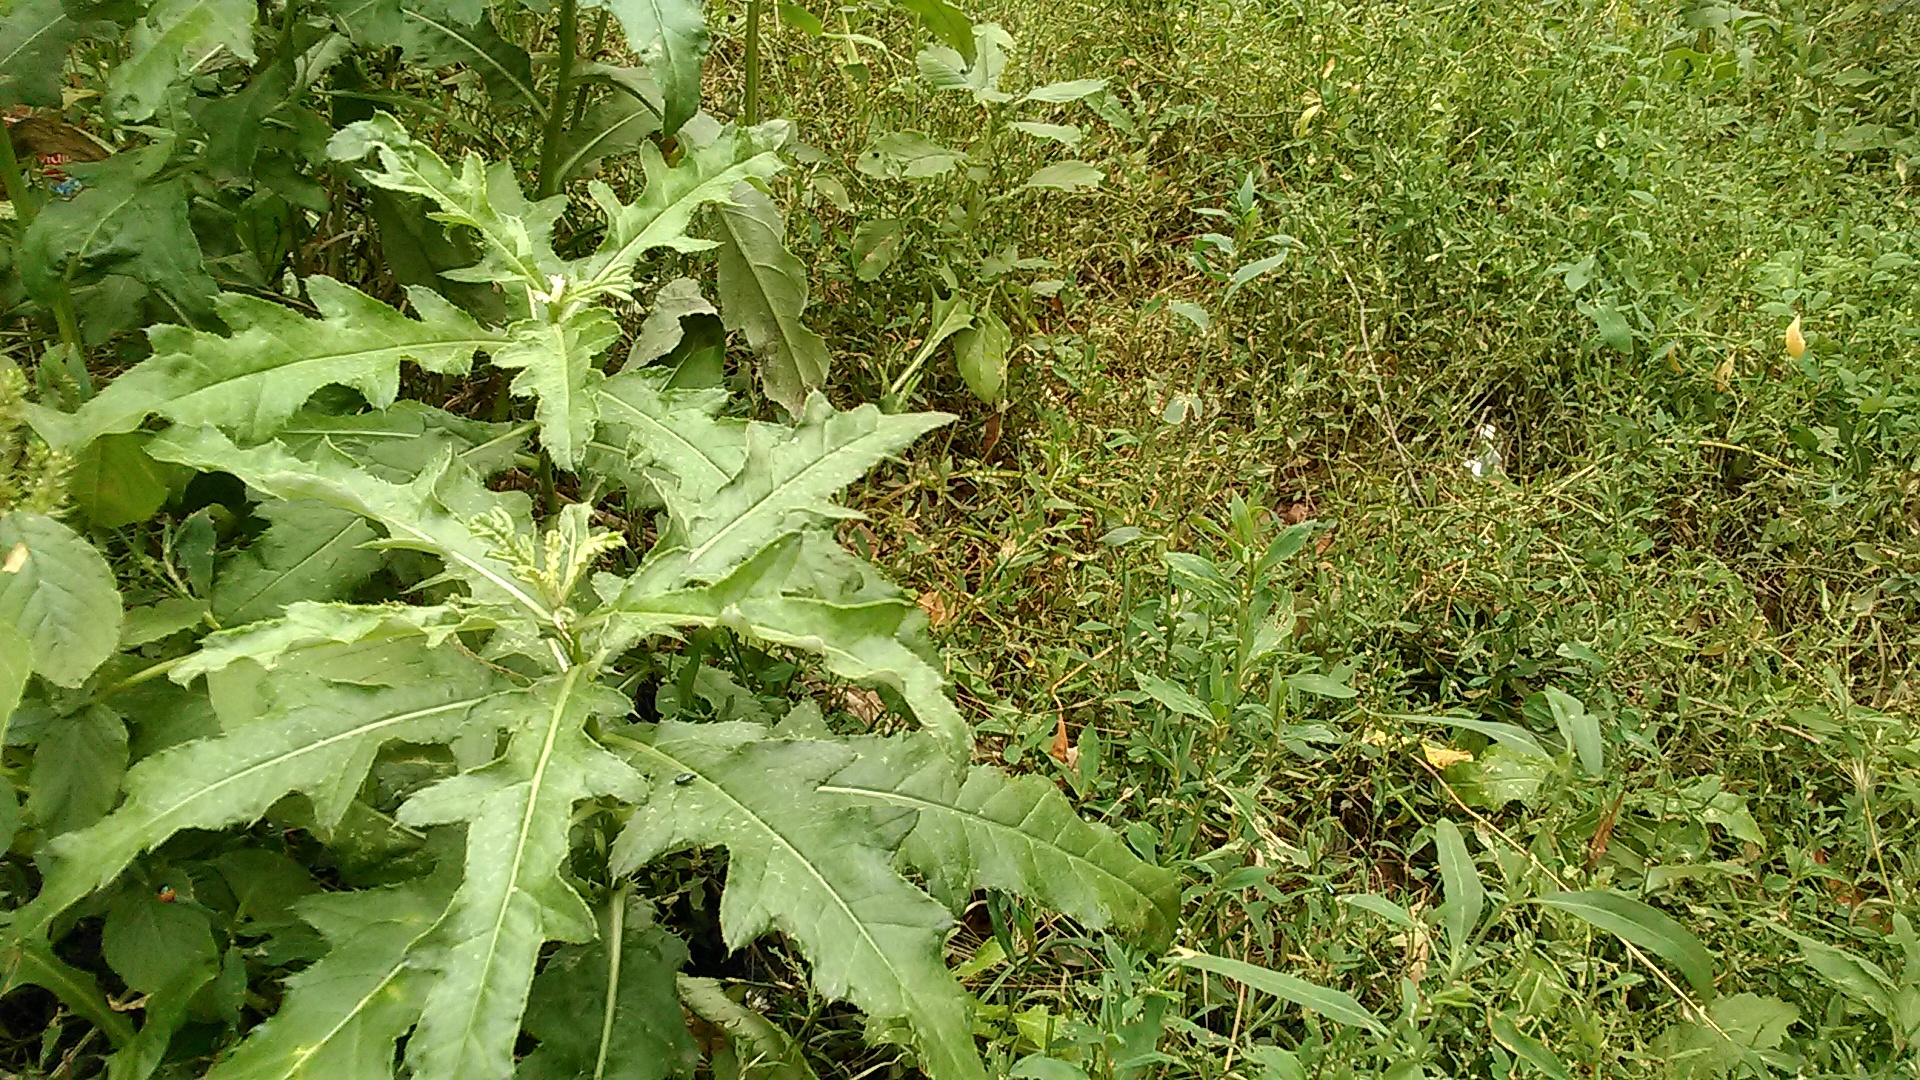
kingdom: Plantae
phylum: Tracheophyta
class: Magnoliopsida
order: Asterales
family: Asteraceae
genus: Cirsium
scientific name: Cirsium arvense
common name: Creeping thistle
